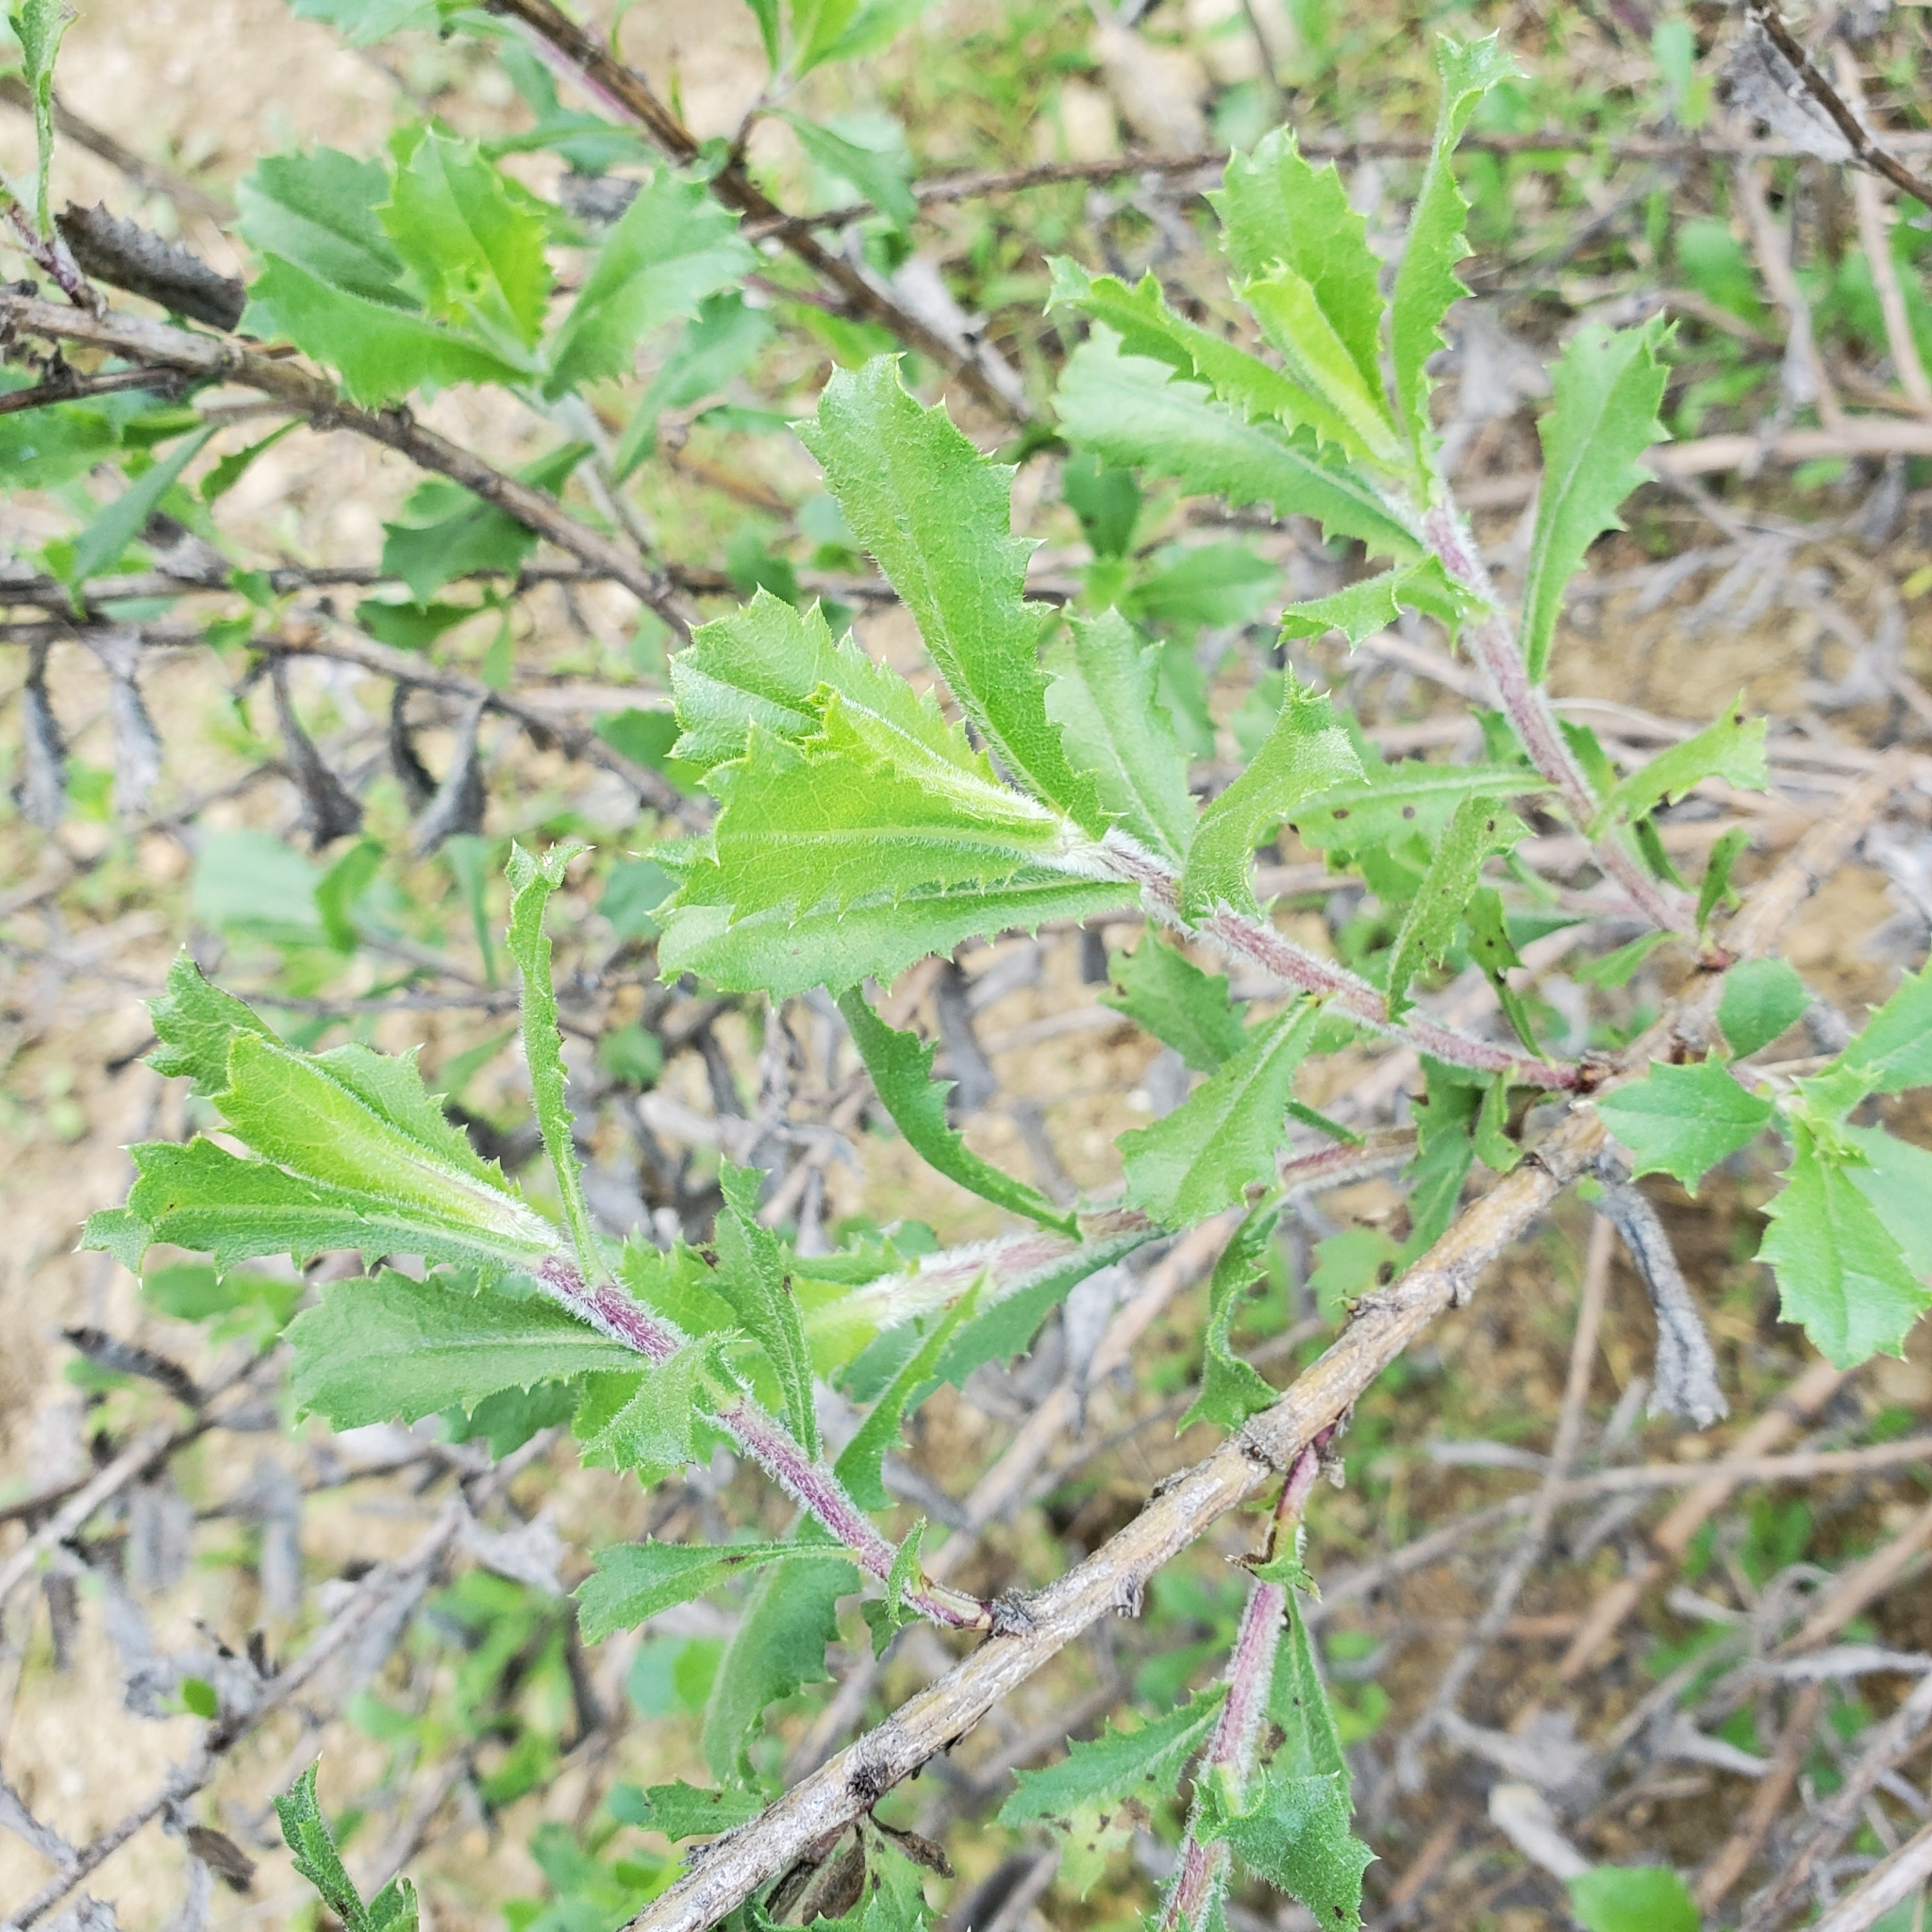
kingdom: Plantae
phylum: Tracheophyta
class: Magnoliopsida
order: Asterales
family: Asteraceae
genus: Hazardia
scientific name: Hazardia squarrosa
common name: Saw-tooth goldenbush
